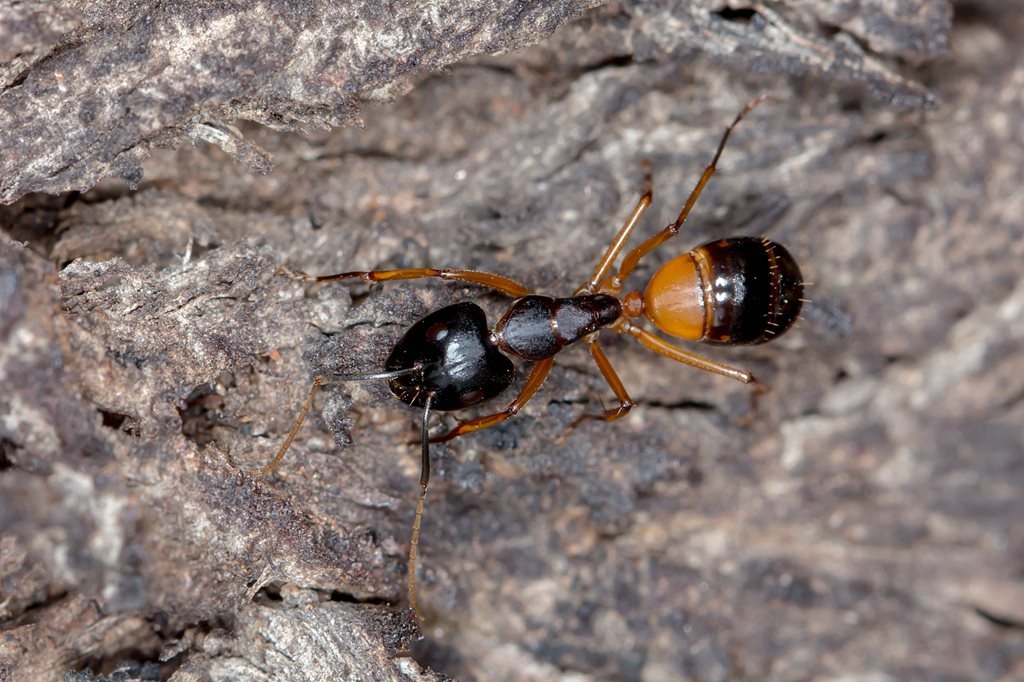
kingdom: Animalia
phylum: Arthropoda
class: Insecta
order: Hymenoptera
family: Formicidae
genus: Camponotus
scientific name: Camponotus consobrinus
